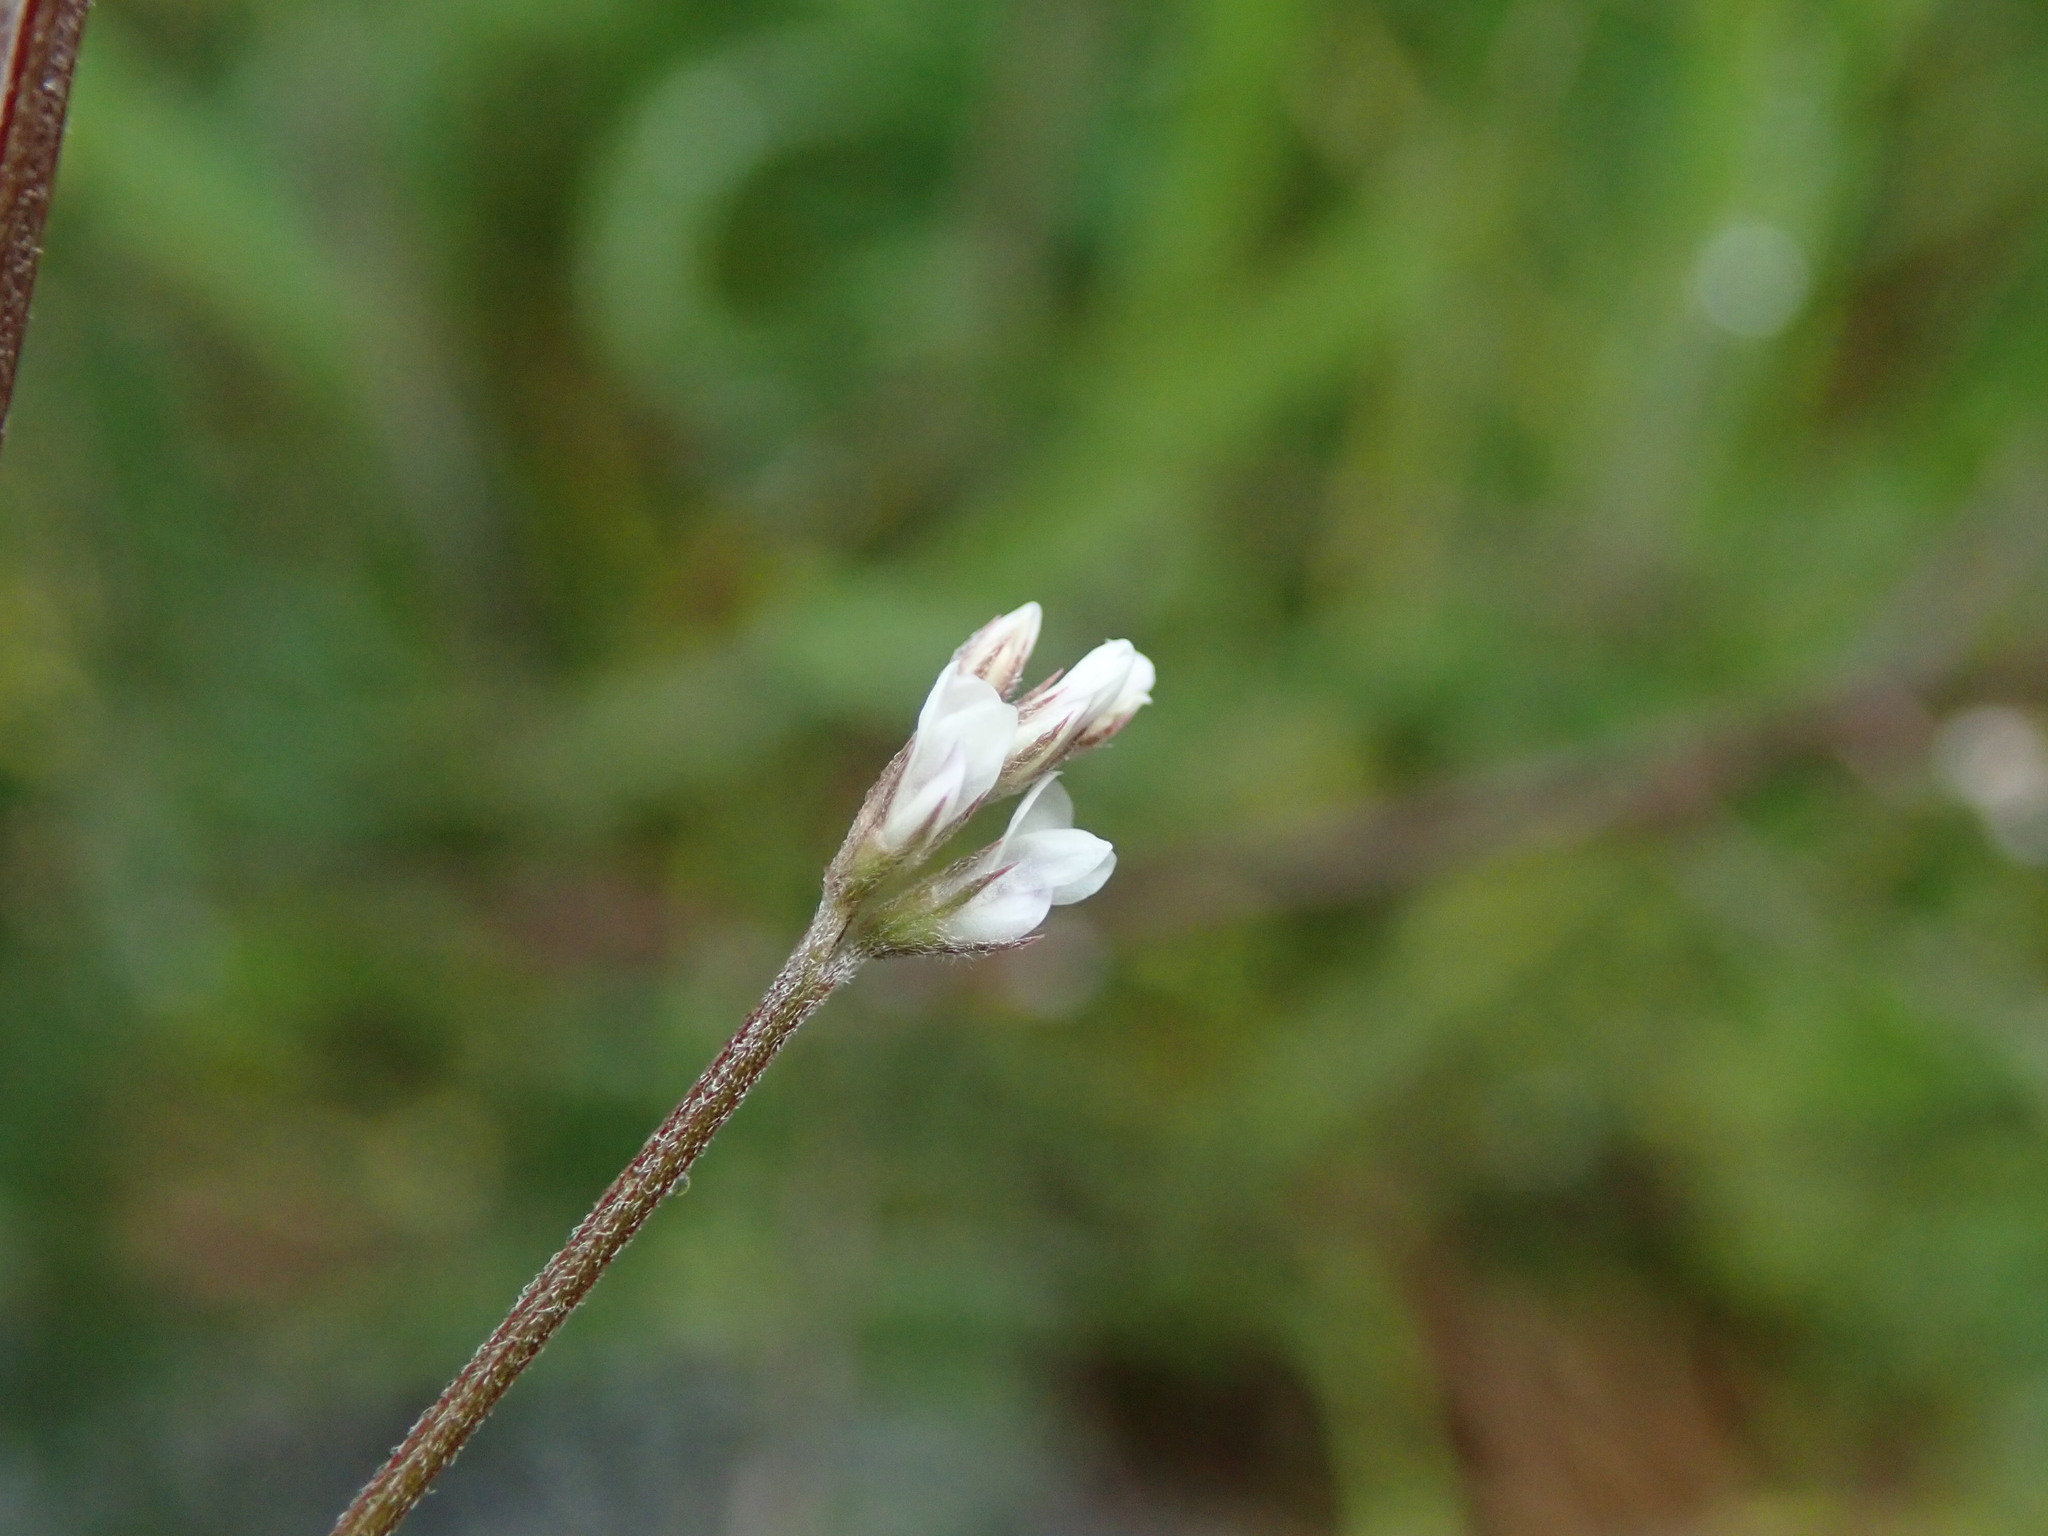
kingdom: Plantae
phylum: Tracheophyta
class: Magnoliopsida
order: Fabales
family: Fabaceae
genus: Vicia
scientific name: Vicia hirsuta
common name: Tiny vetch
